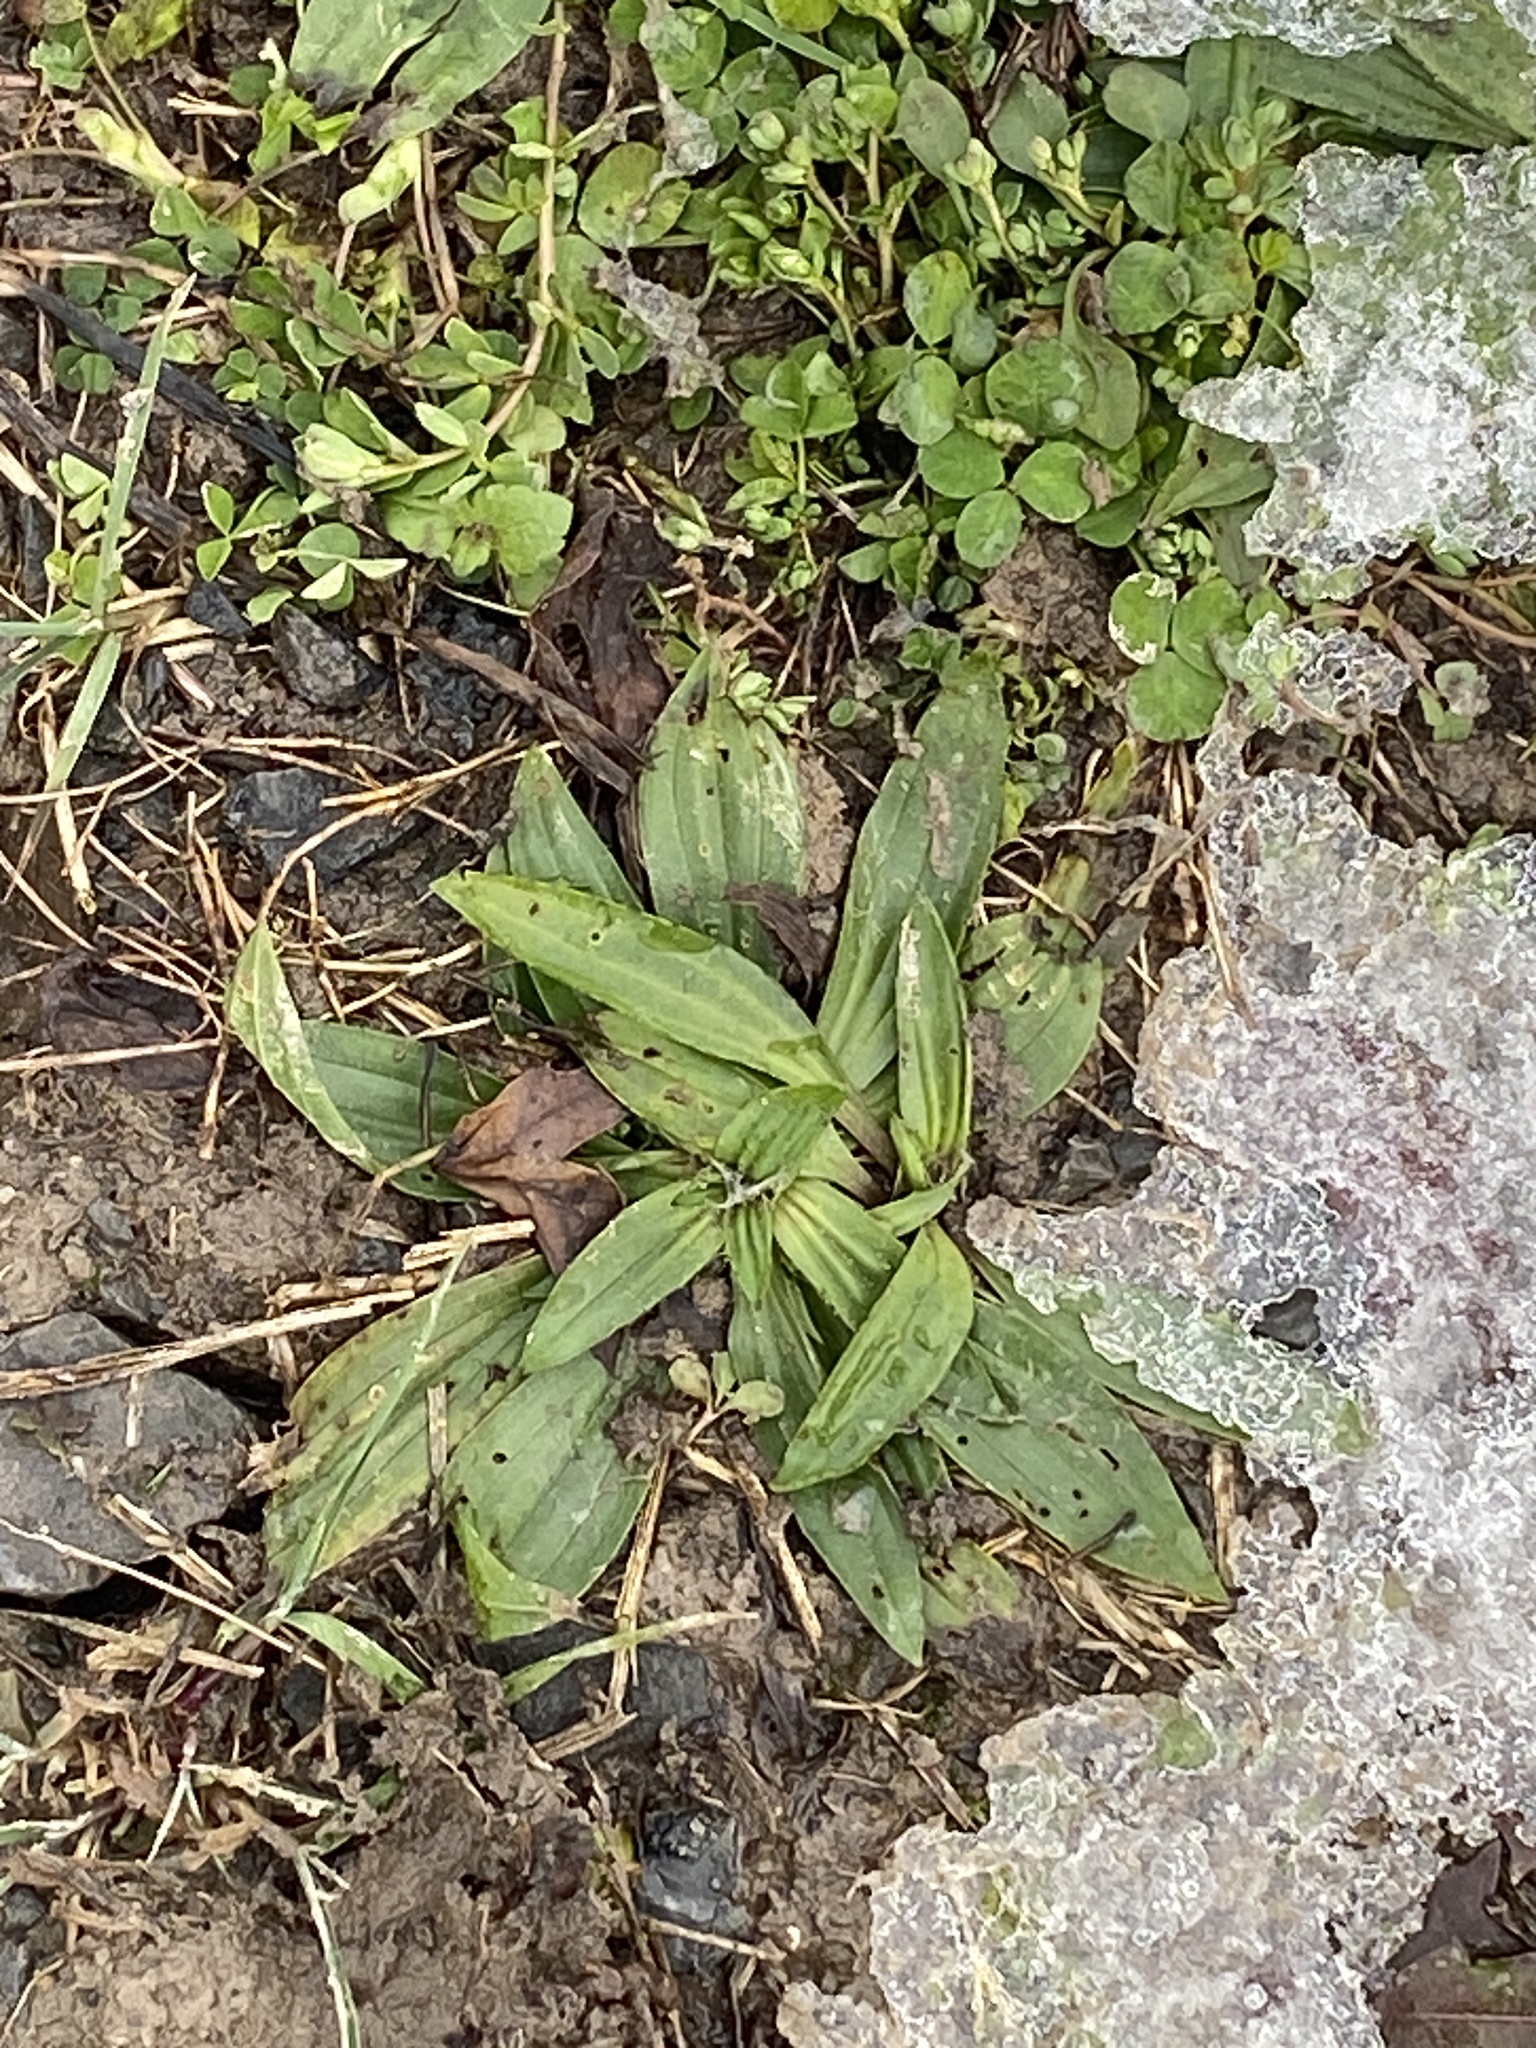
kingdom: Plantae
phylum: Tracheophyta
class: Magnoliopsida
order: Lamiales
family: Plantaginaceae
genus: Plantago
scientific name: Plantago lanceolata
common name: Ribwort plantain
